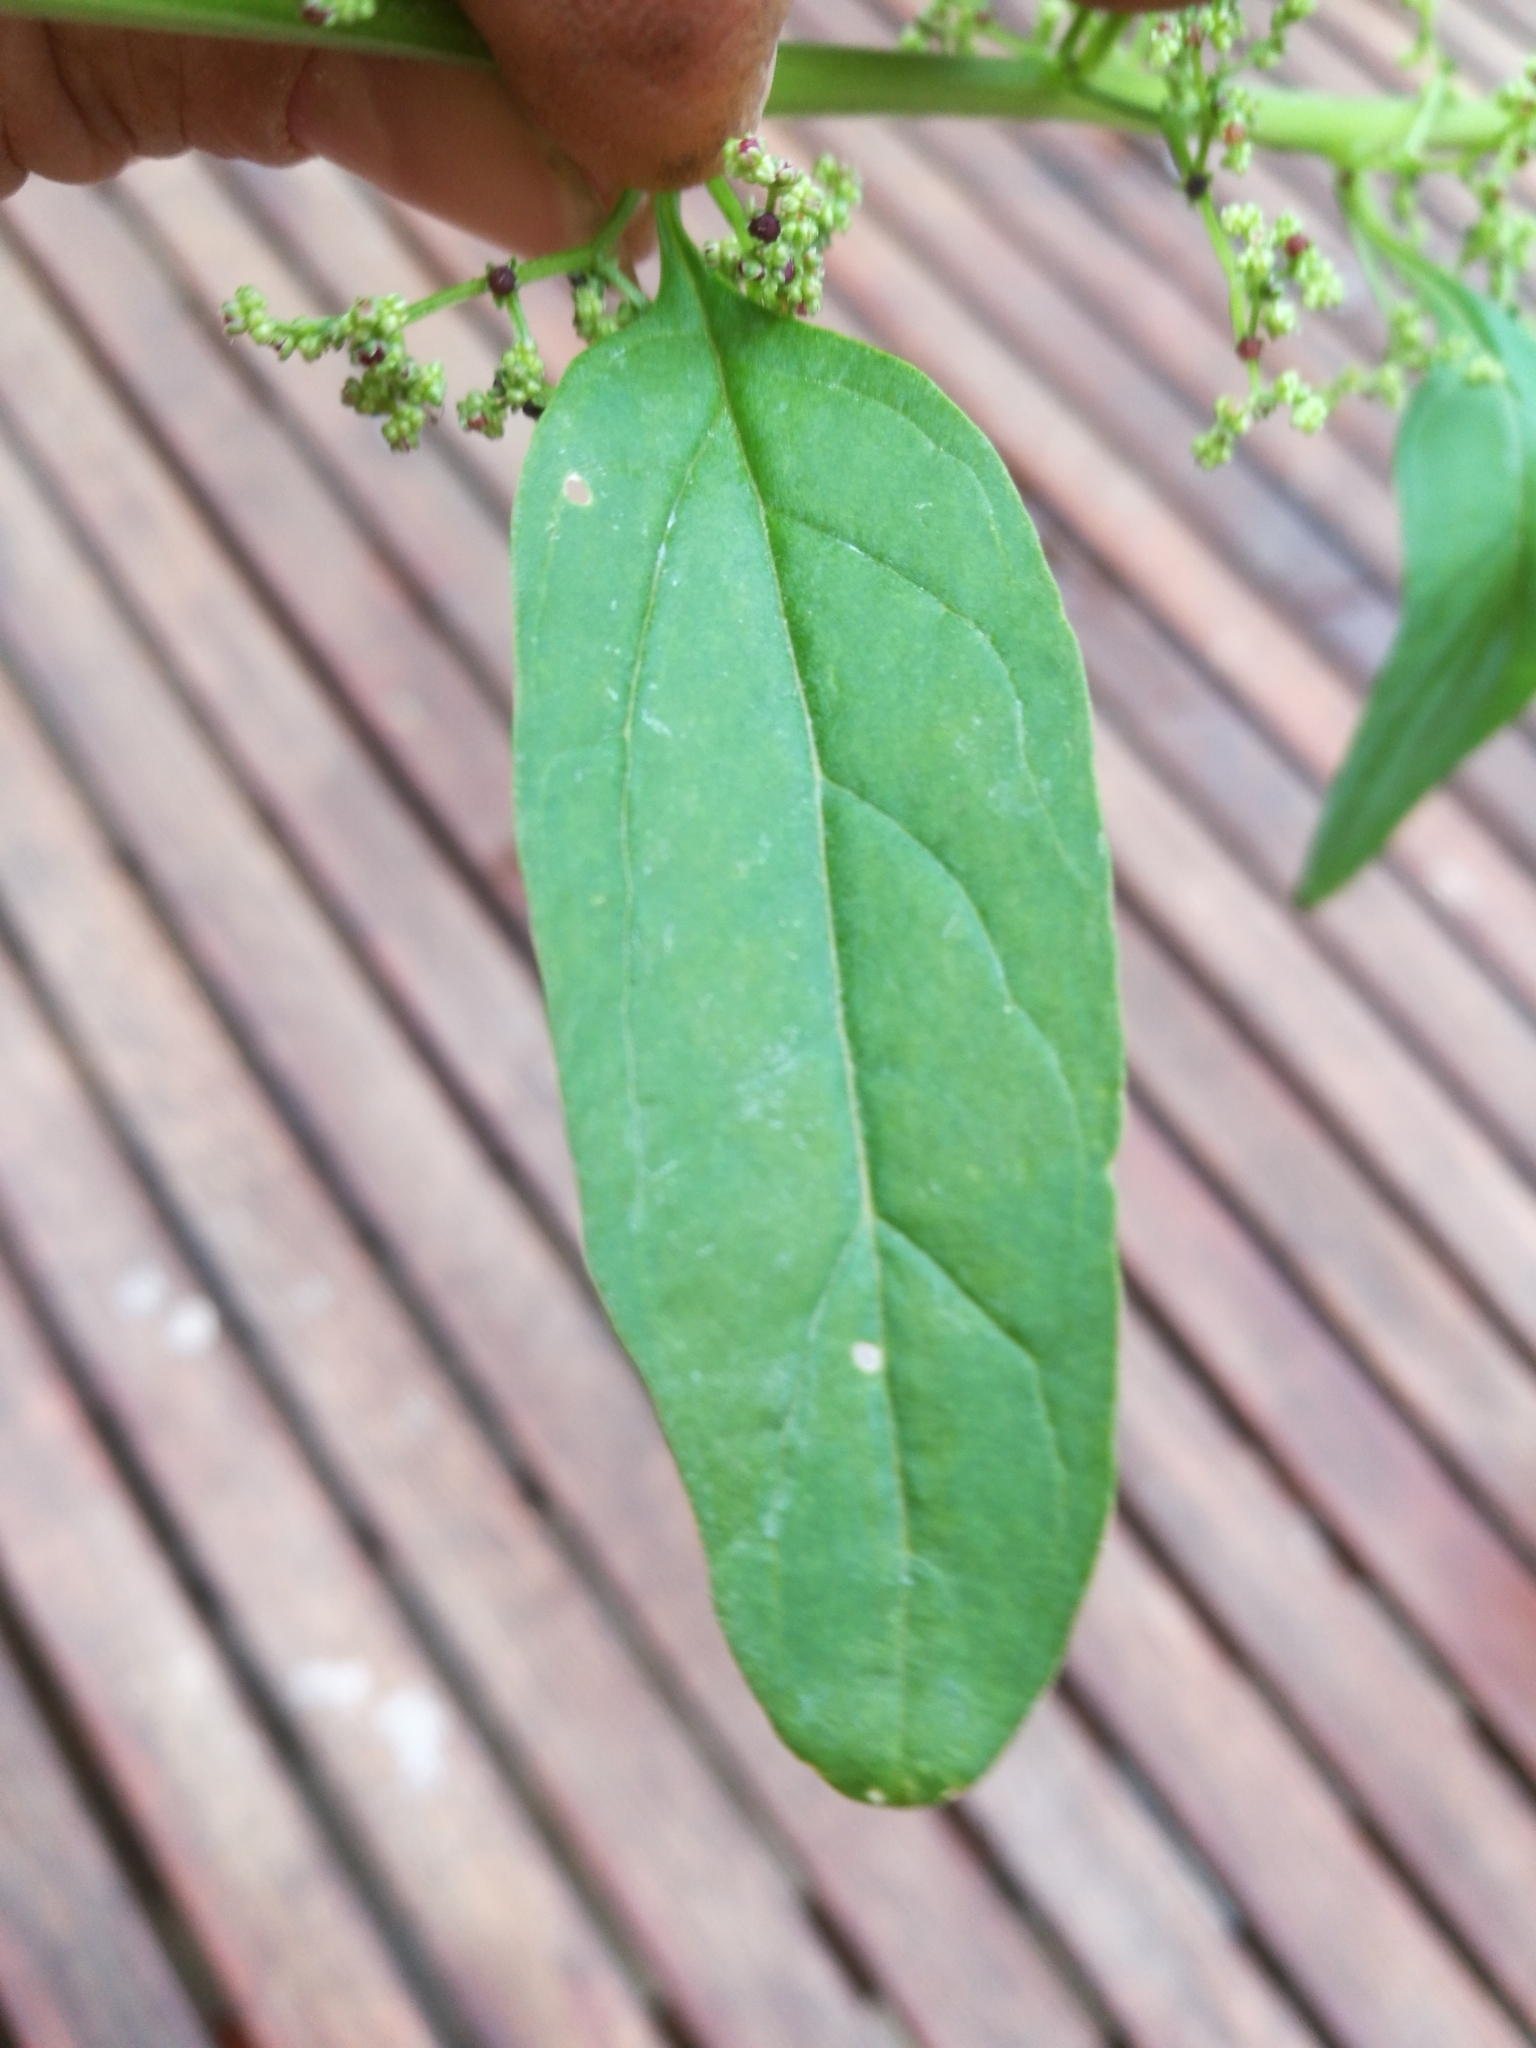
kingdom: Plantae
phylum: Tracheophyta
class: Magnoliopsida
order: Caryophyllales
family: Amaranthaceae
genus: Lipandra
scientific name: Lipandra polysperma
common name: Many-seed goosefoot
